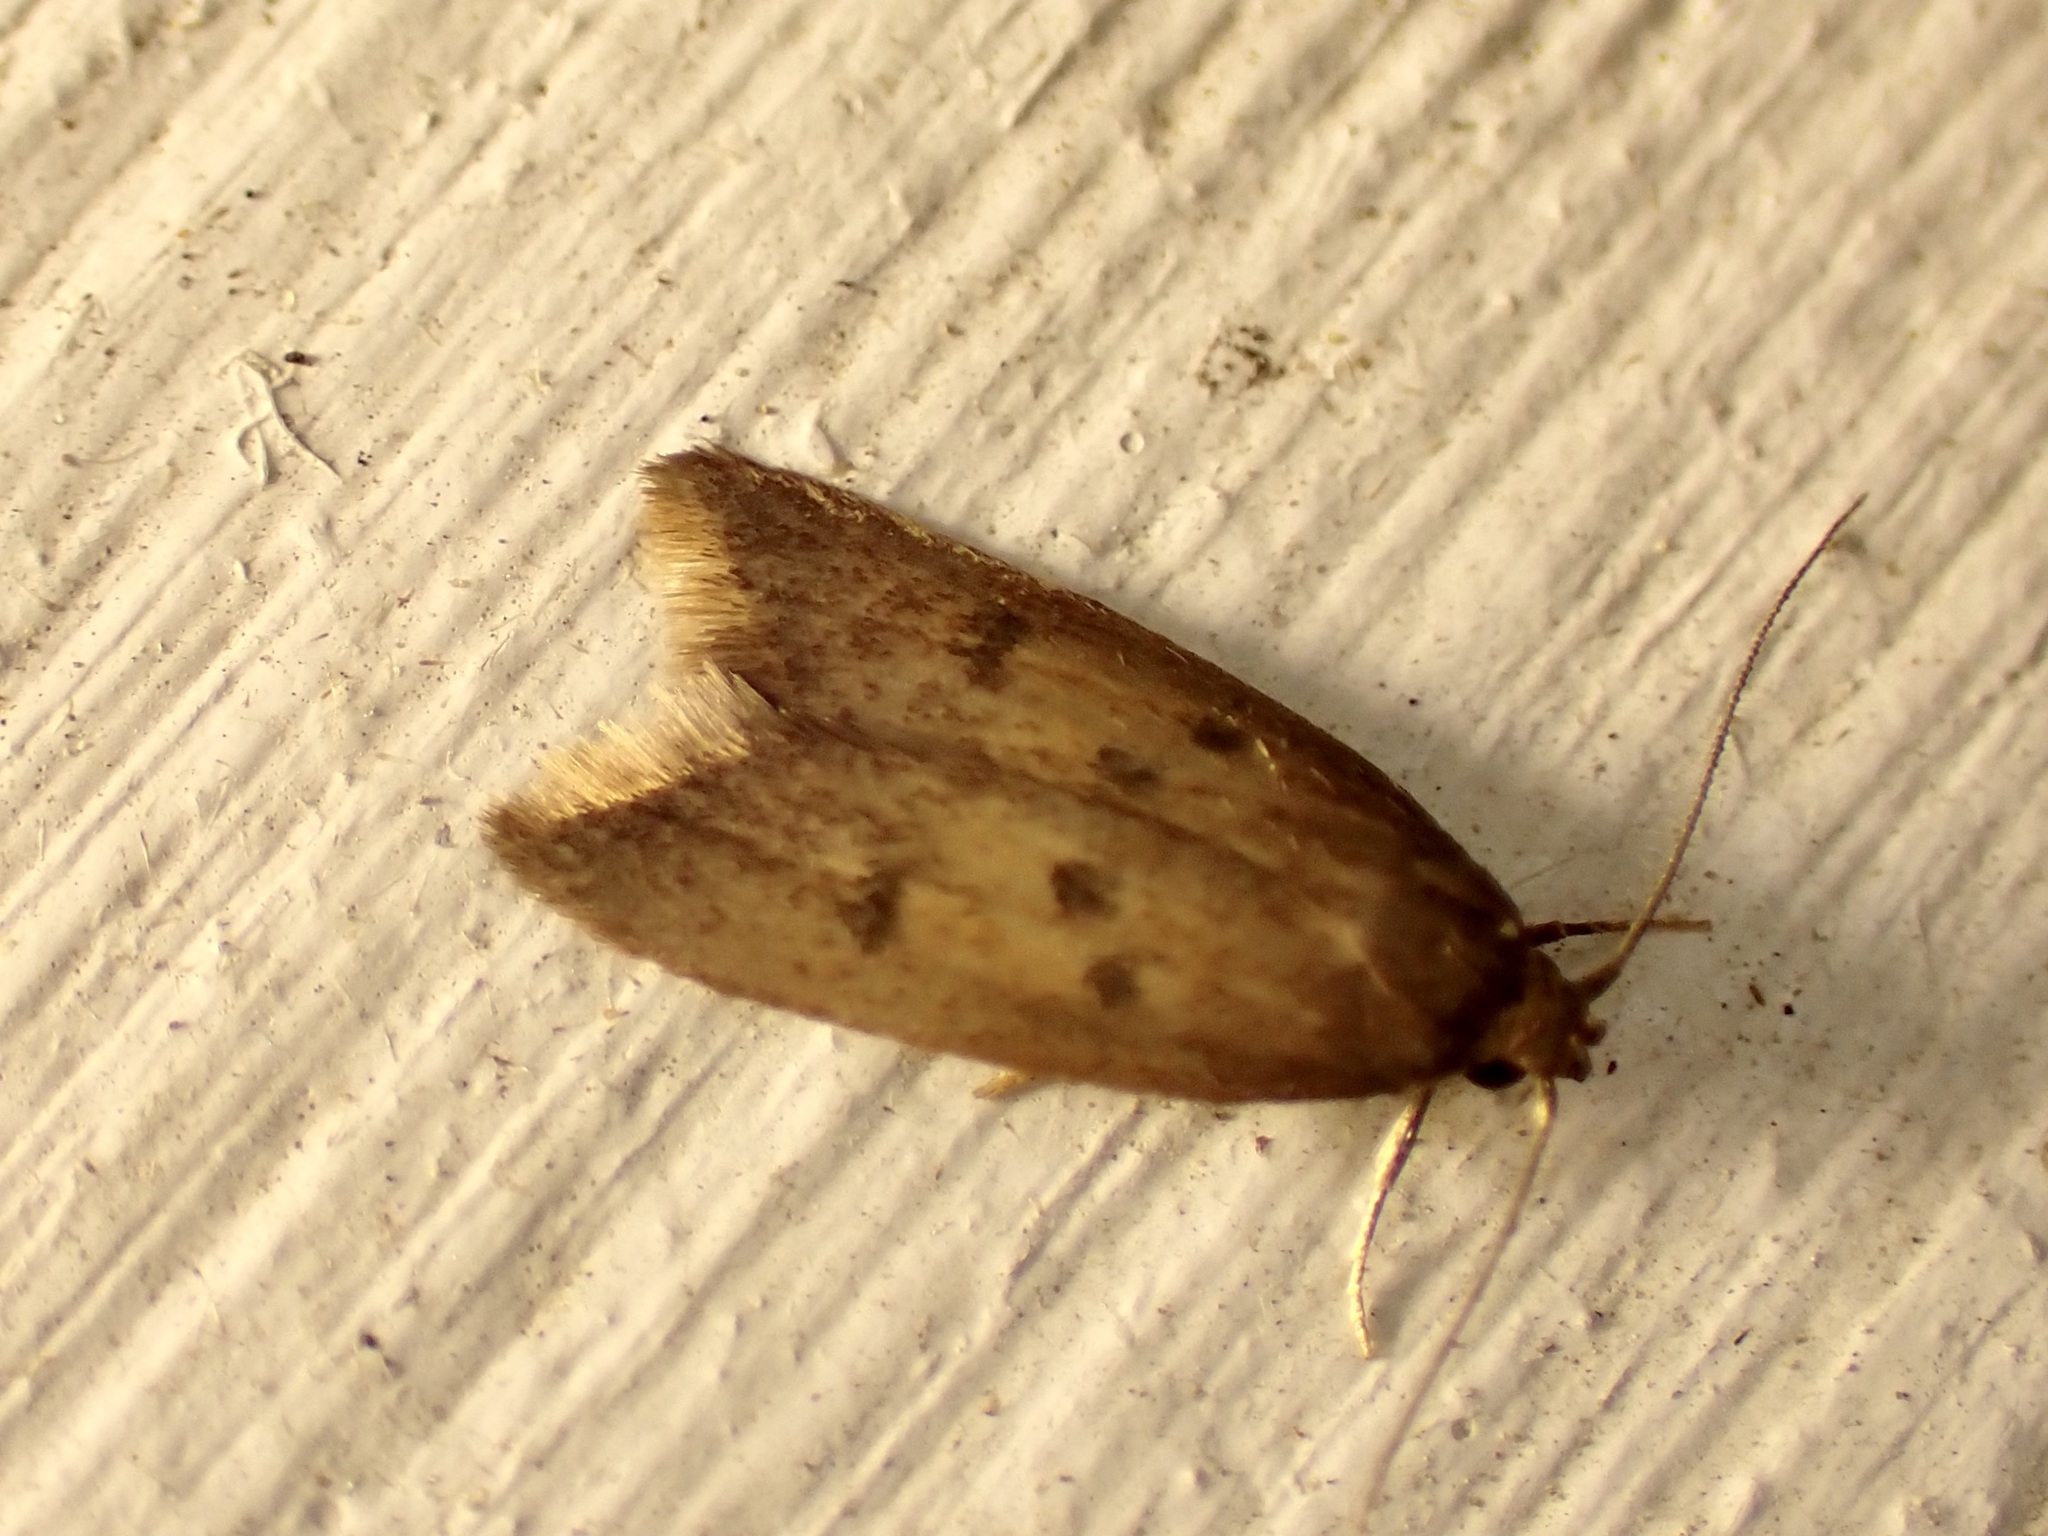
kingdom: Animalia
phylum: Arthropoda
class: Insecta
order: Lepidoptera
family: Oecophoridae
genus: Tachystola
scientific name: Tachystola acroxantha
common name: Ruddy streak
